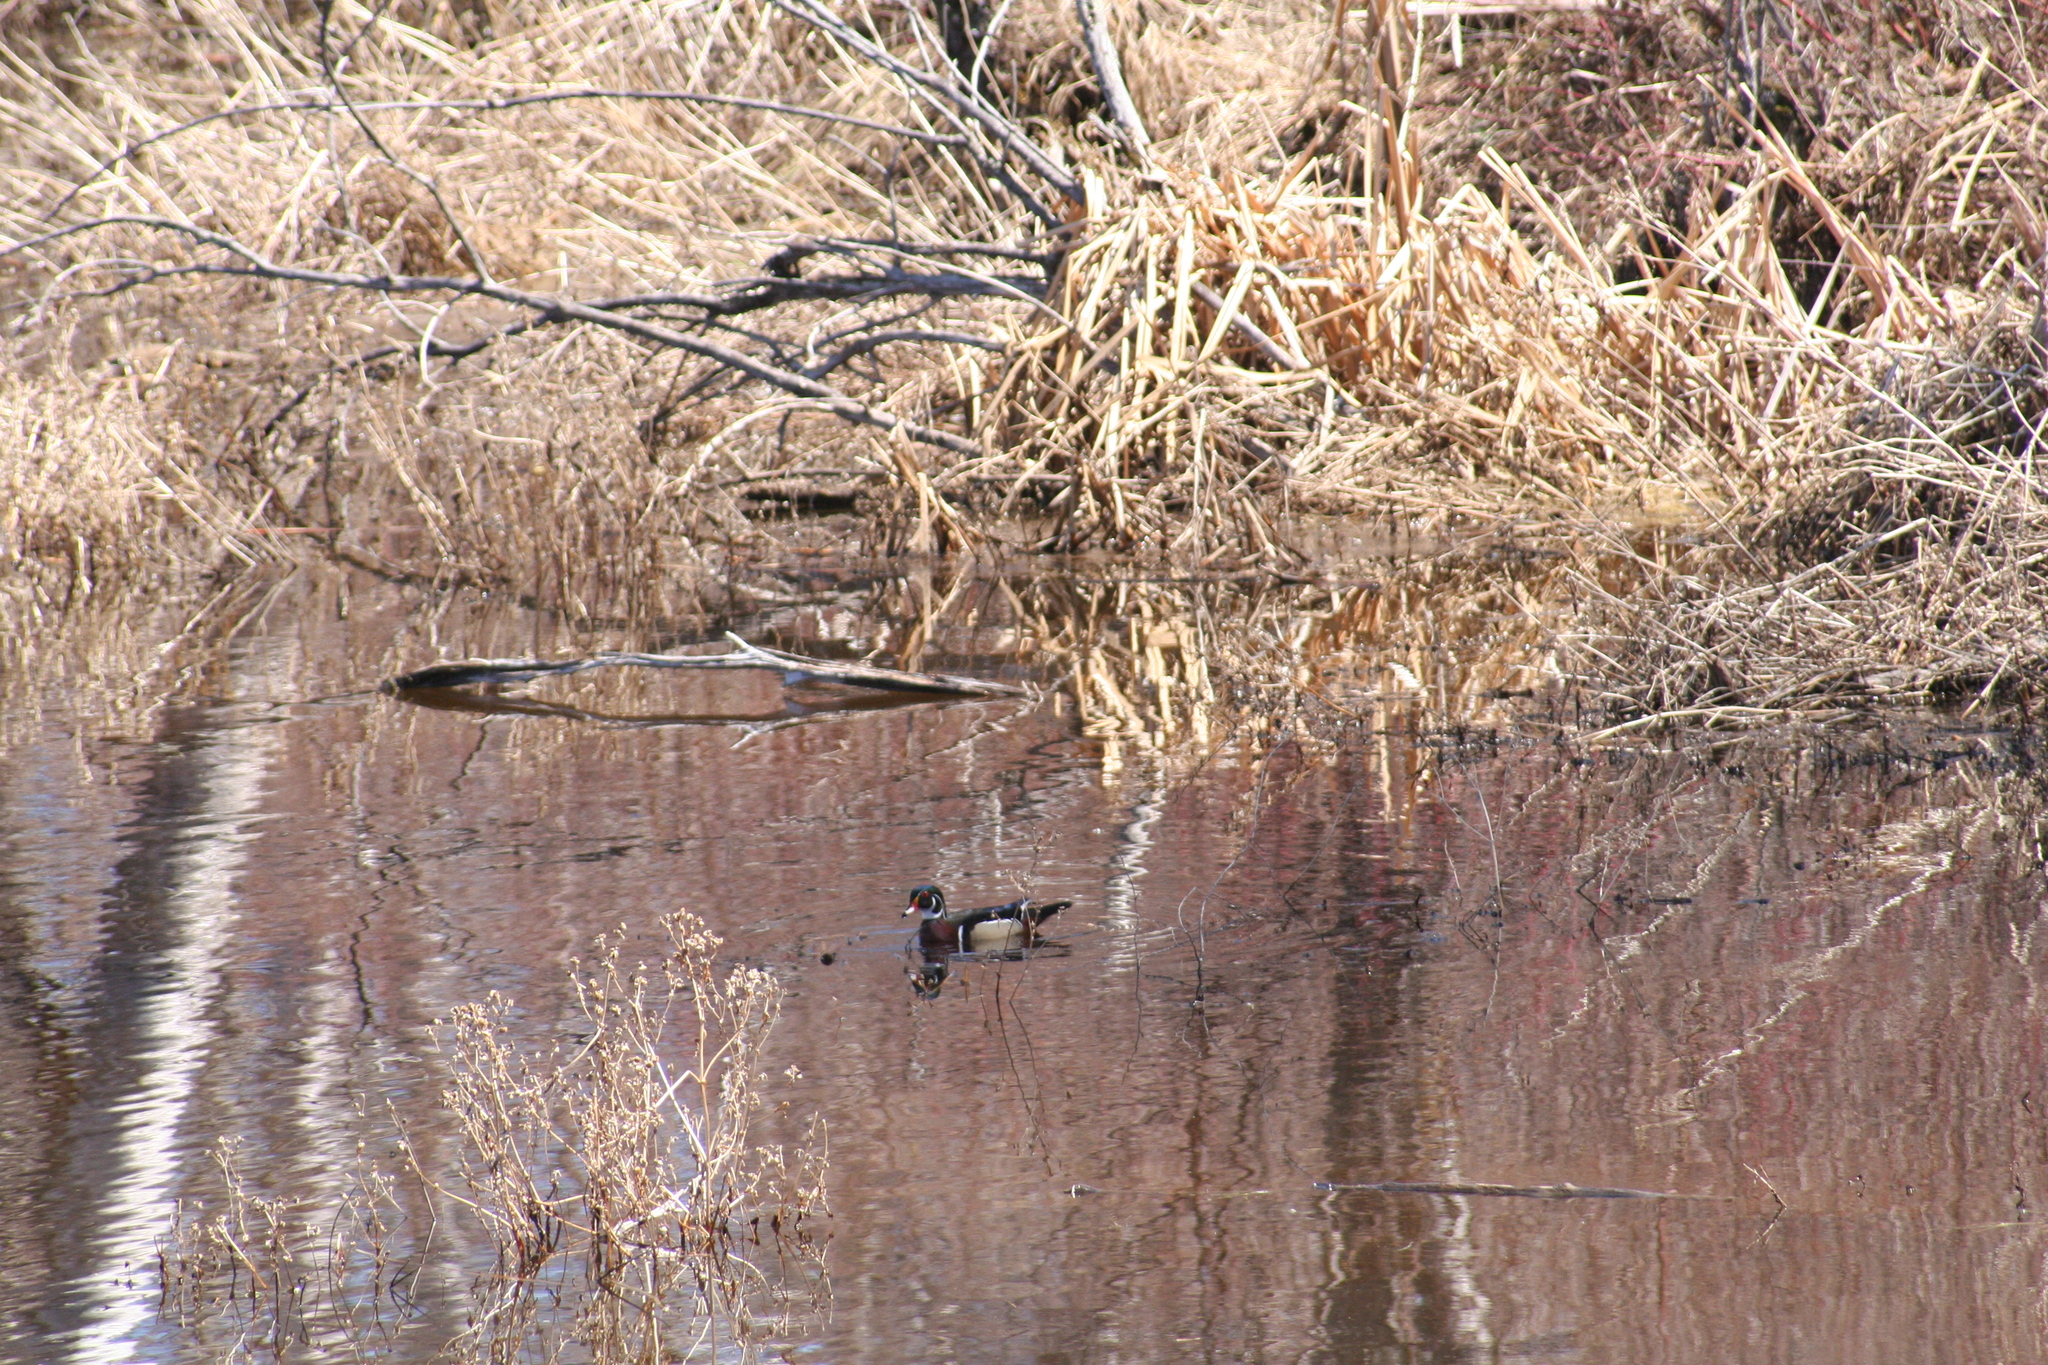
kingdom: Animalia
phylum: Chordata
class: Aves
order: Anseriformes
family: Anatidae
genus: Aix
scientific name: Aix sponsa
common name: Wood duck
